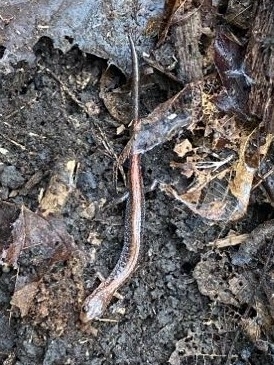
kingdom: Animalia
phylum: Chordata
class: Amphibia
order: Caudata
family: Plethodontidae
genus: Plethodon
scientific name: Plethodon cinereus
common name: Redback salamander
